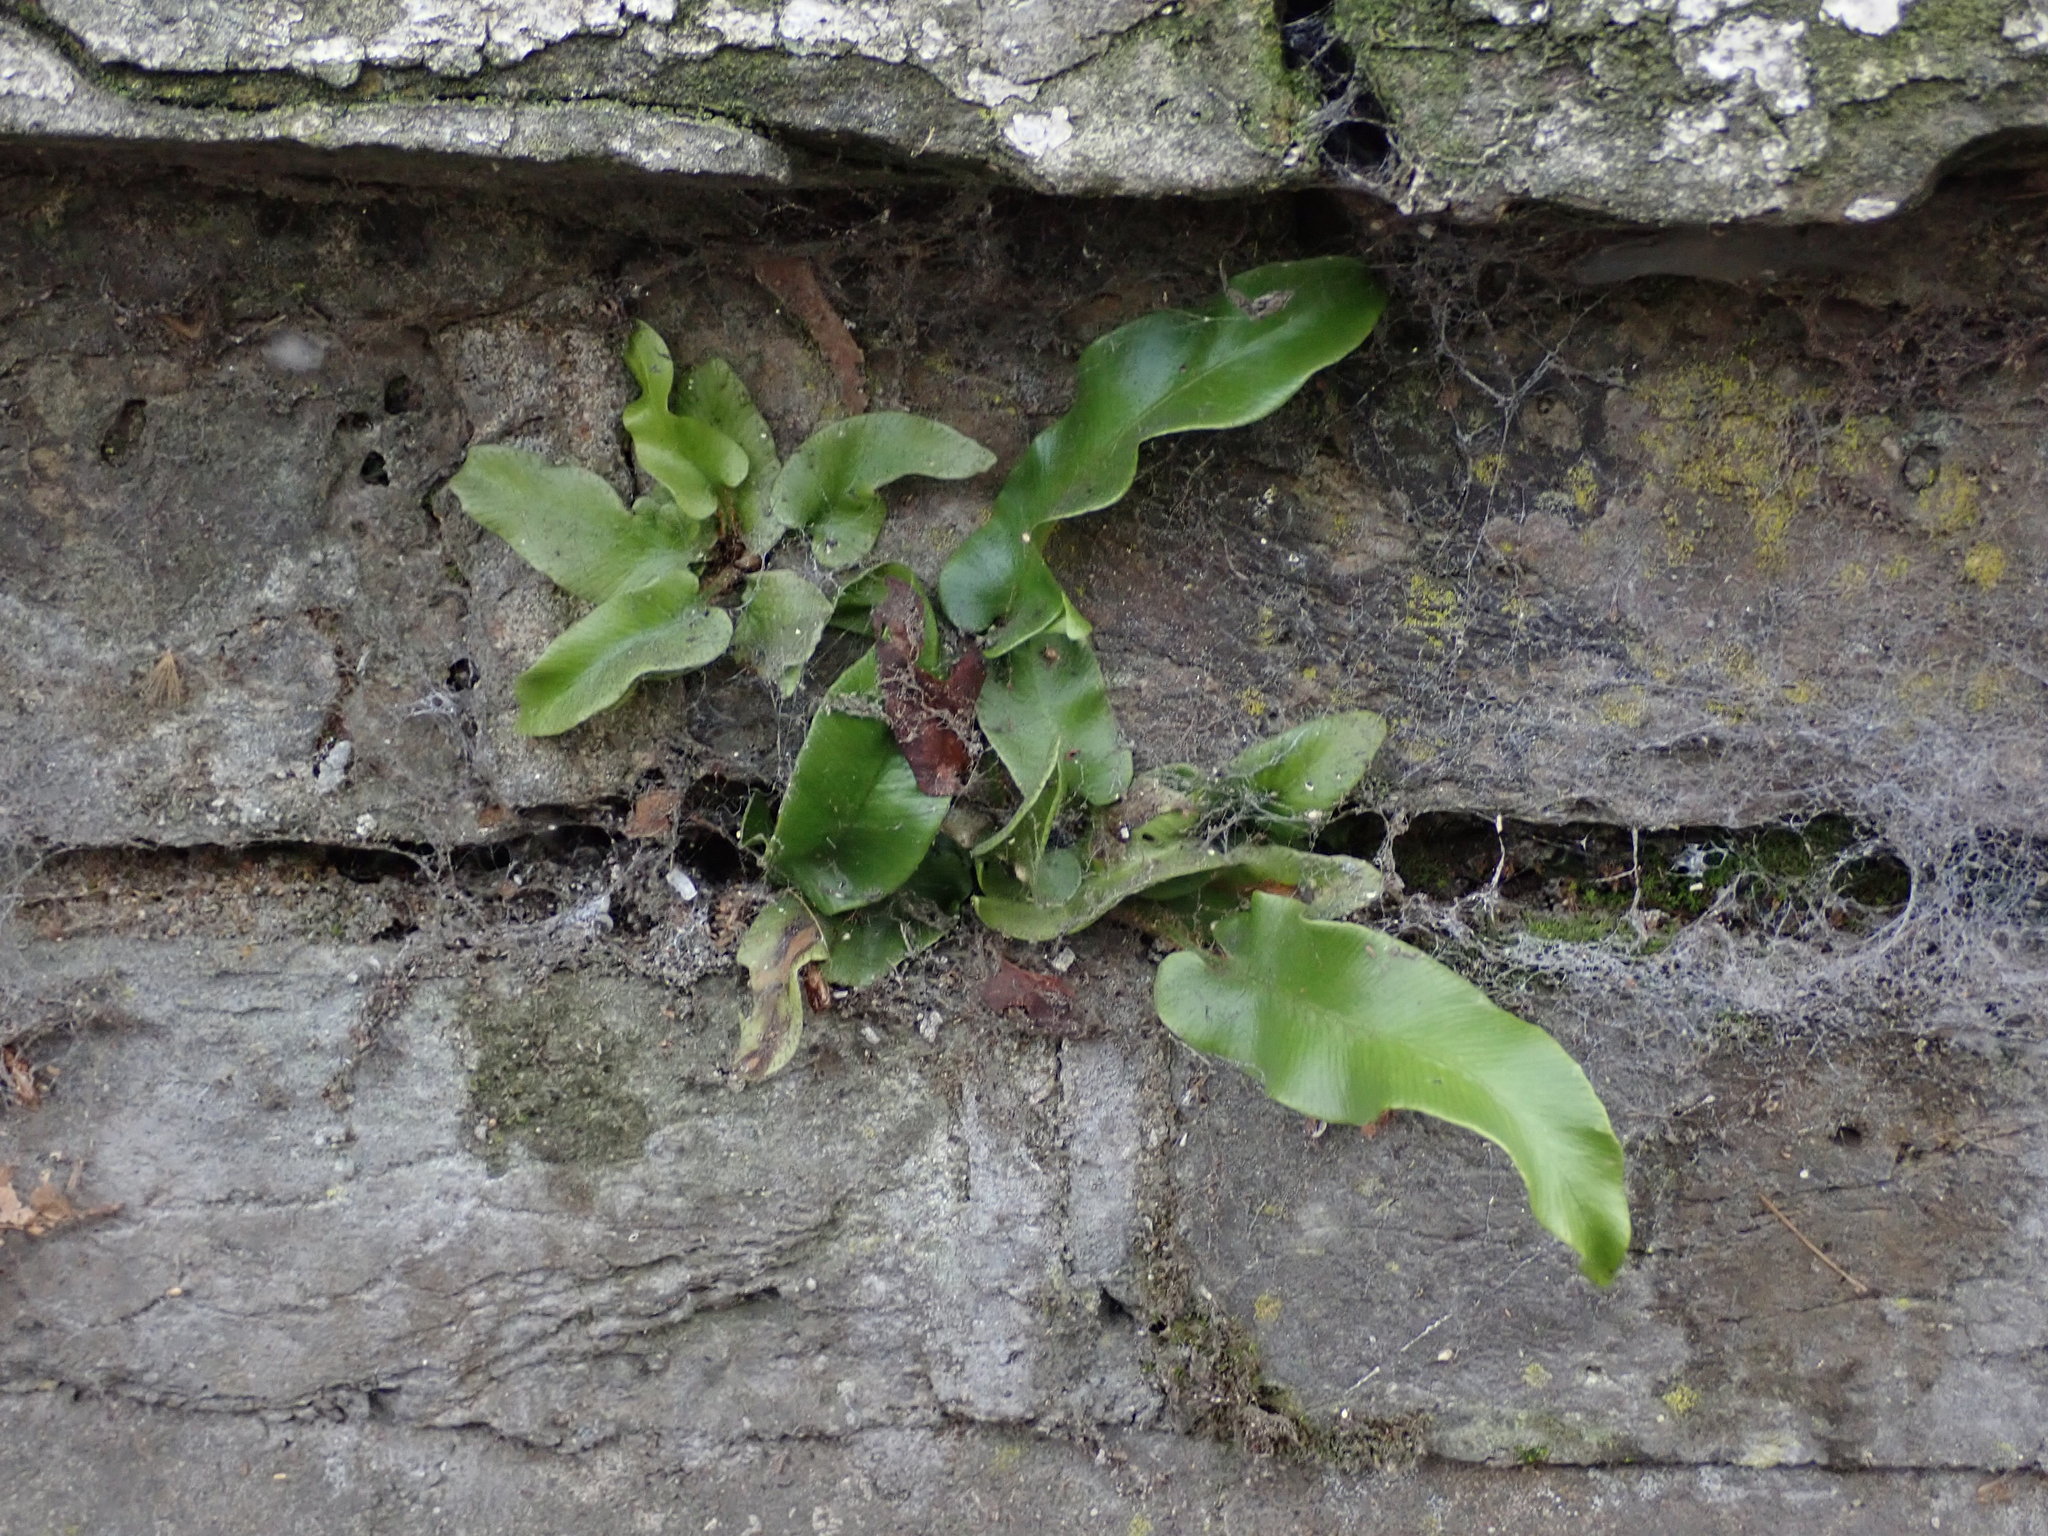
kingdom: Plantae
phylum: Tracheophyta
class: Polypodiopsida
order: Polypodiales
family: Aspleniaceae
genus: Asplenium
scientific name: Asplenium scolopendrium
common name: Hart's-tongue fern
